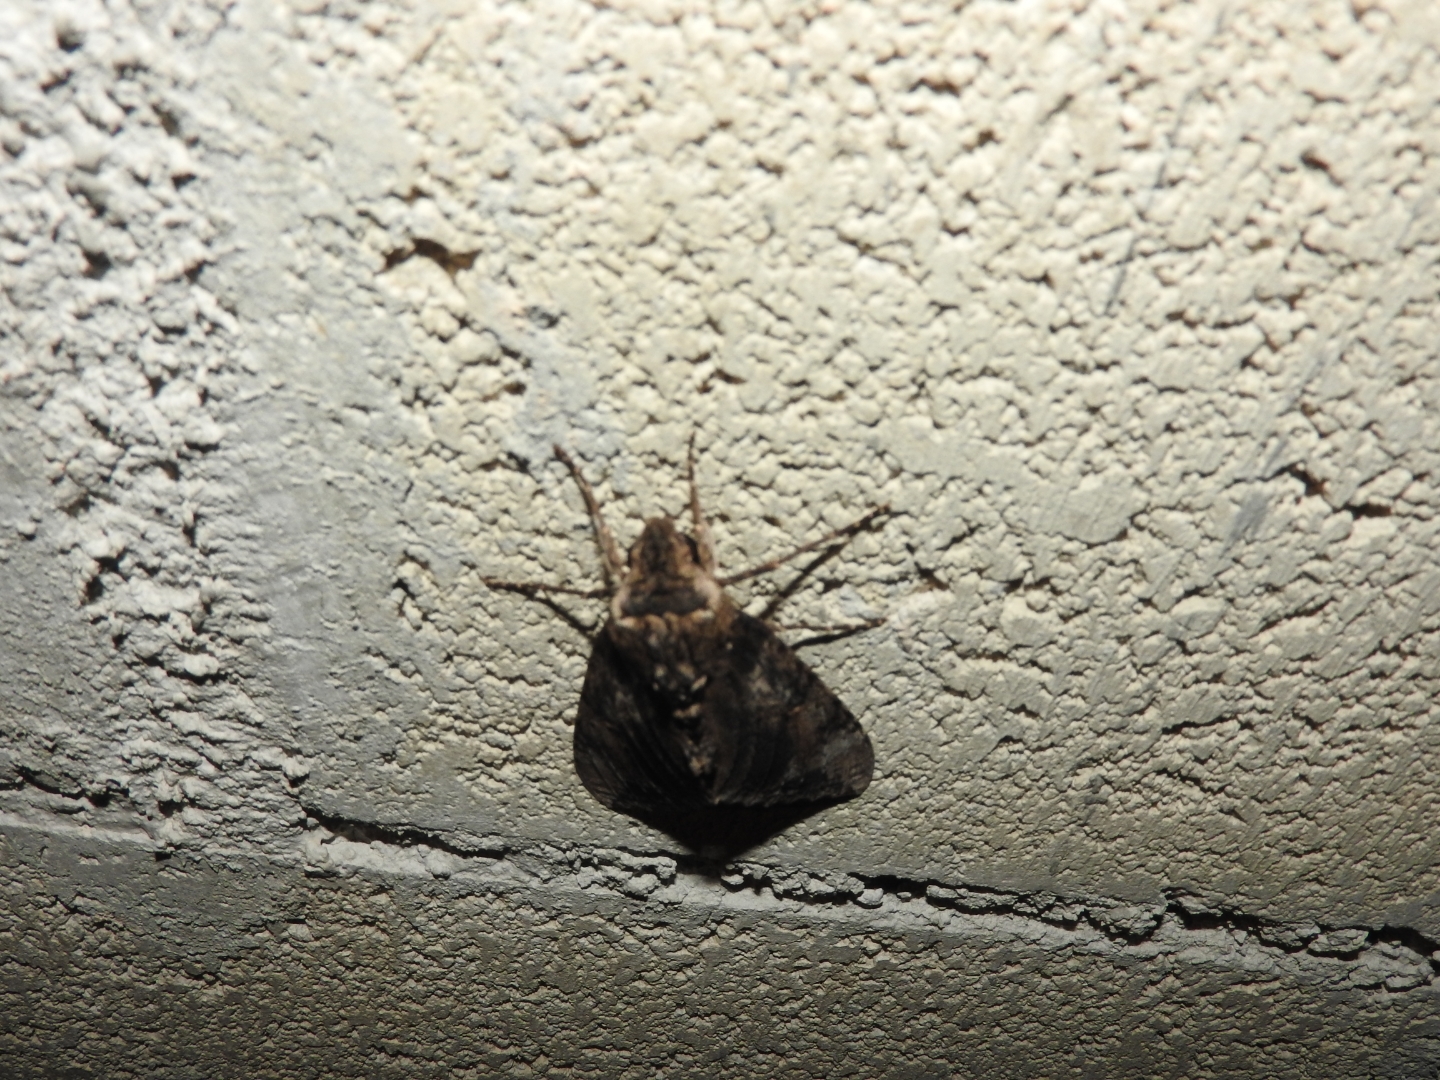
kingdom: Animalia
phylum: Arthropoda
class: Insecta
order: Lepidoptera
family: Sphingidae
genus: Pseudosphinx
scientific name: Pseudosphinx tetrio
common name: Tetrio sphinx
